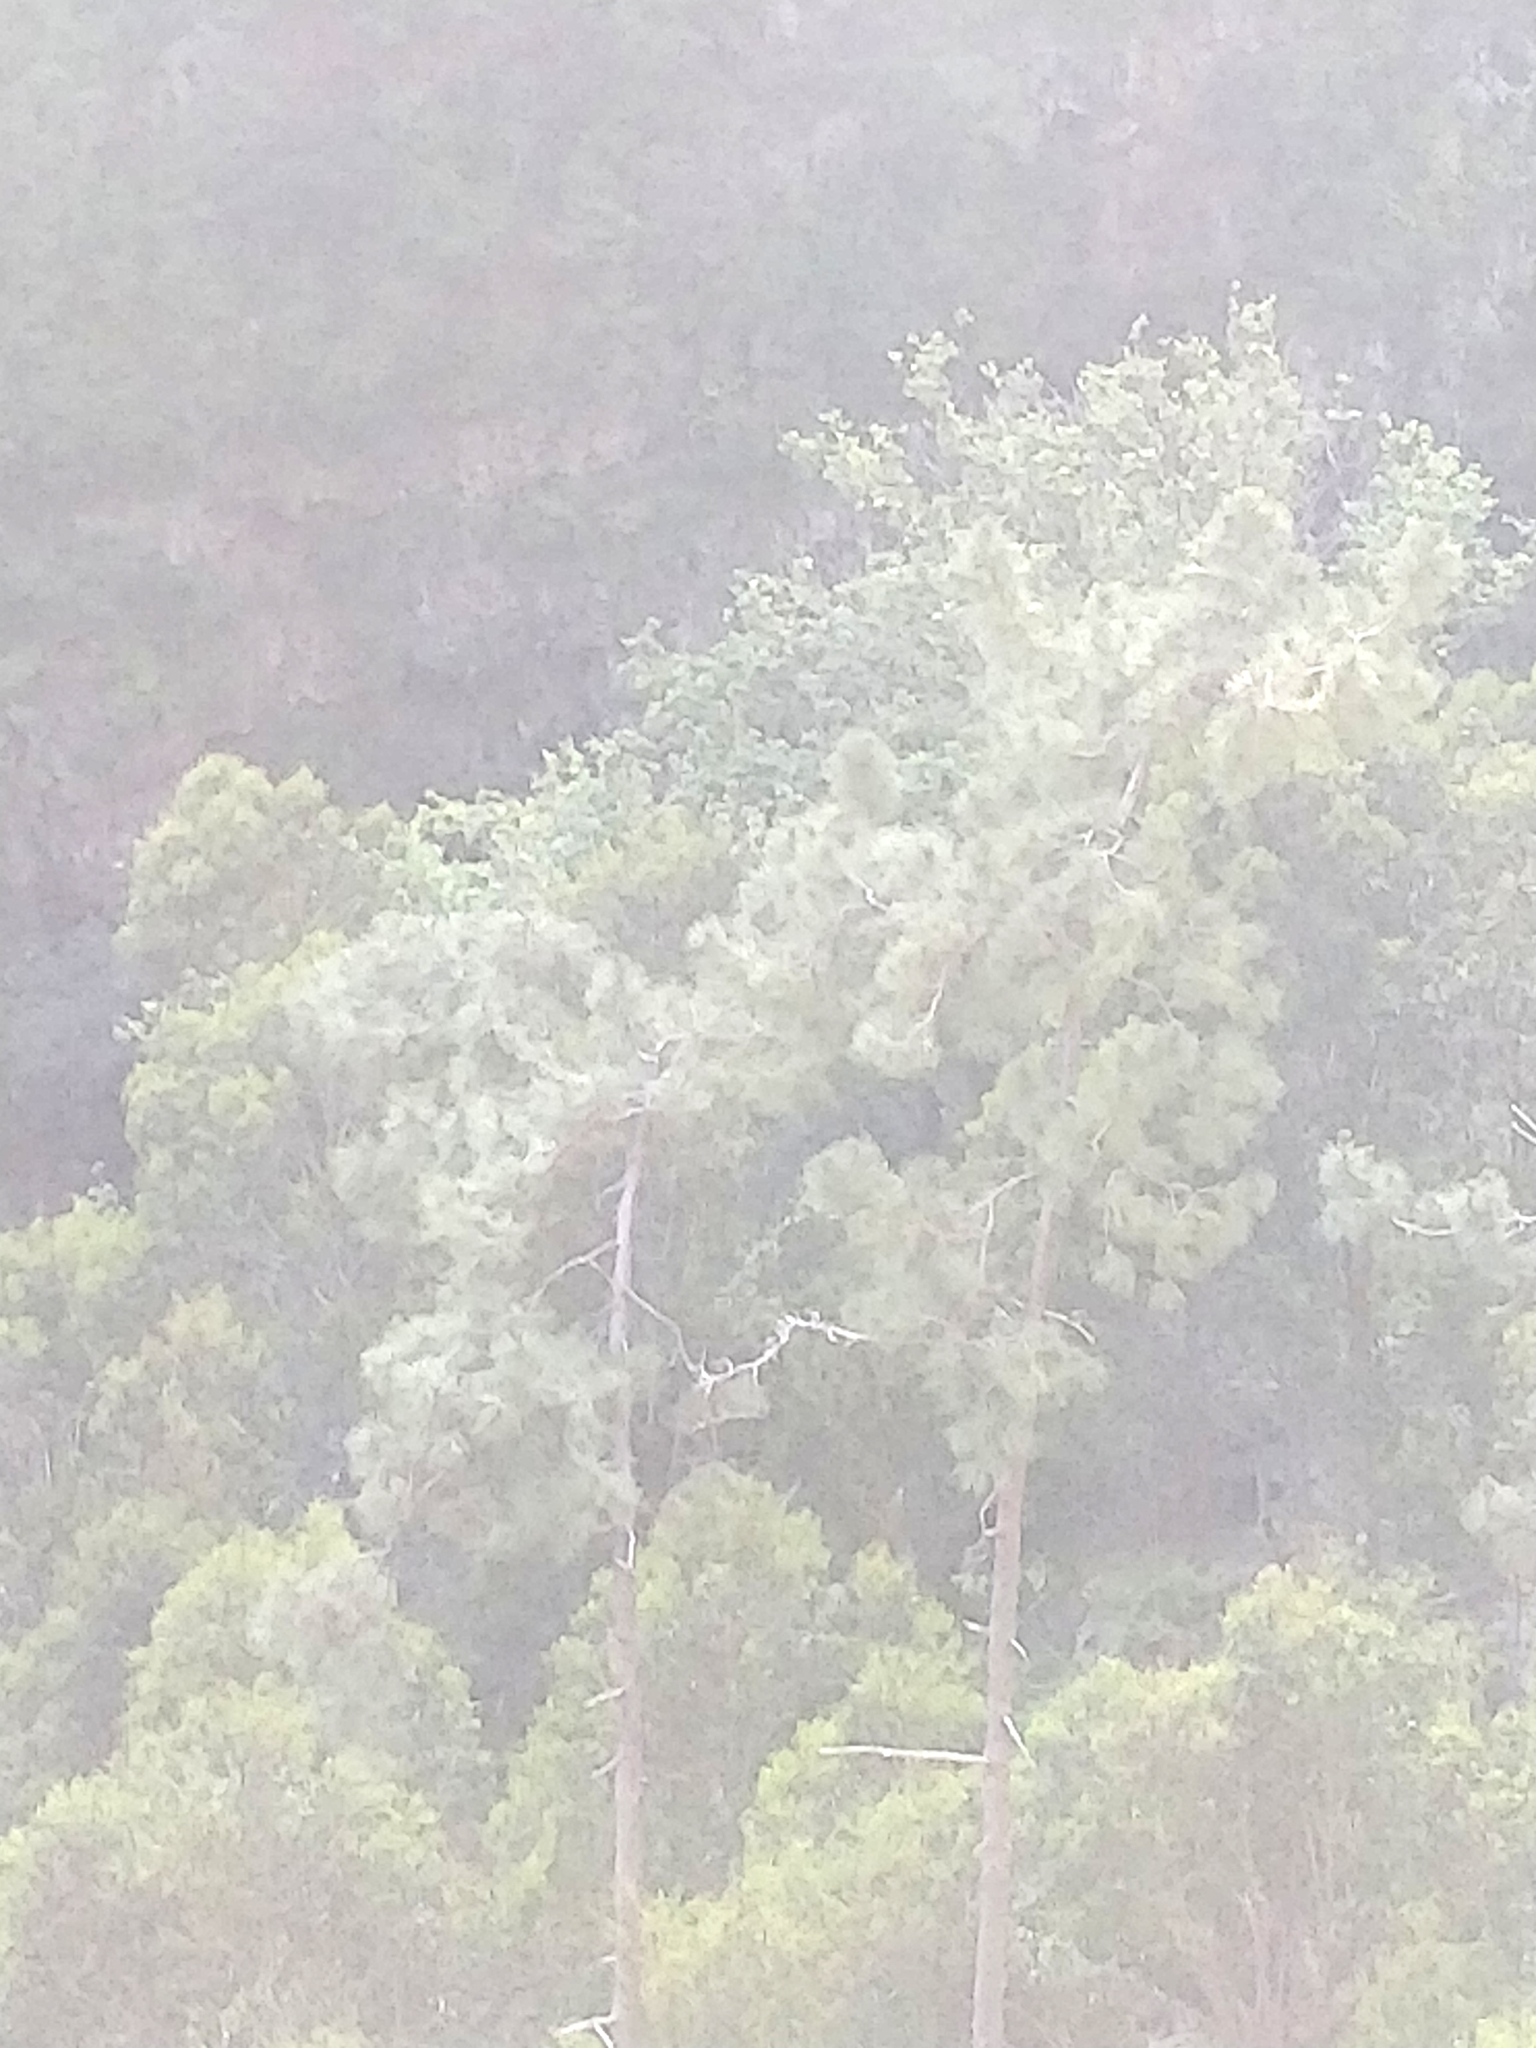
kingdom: Plantae
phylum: Tracheophyta
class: Pinopsida
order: Pinales
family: Pinaceae
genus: Pinus
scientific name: Pinus pinaster
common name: Maritime pine
